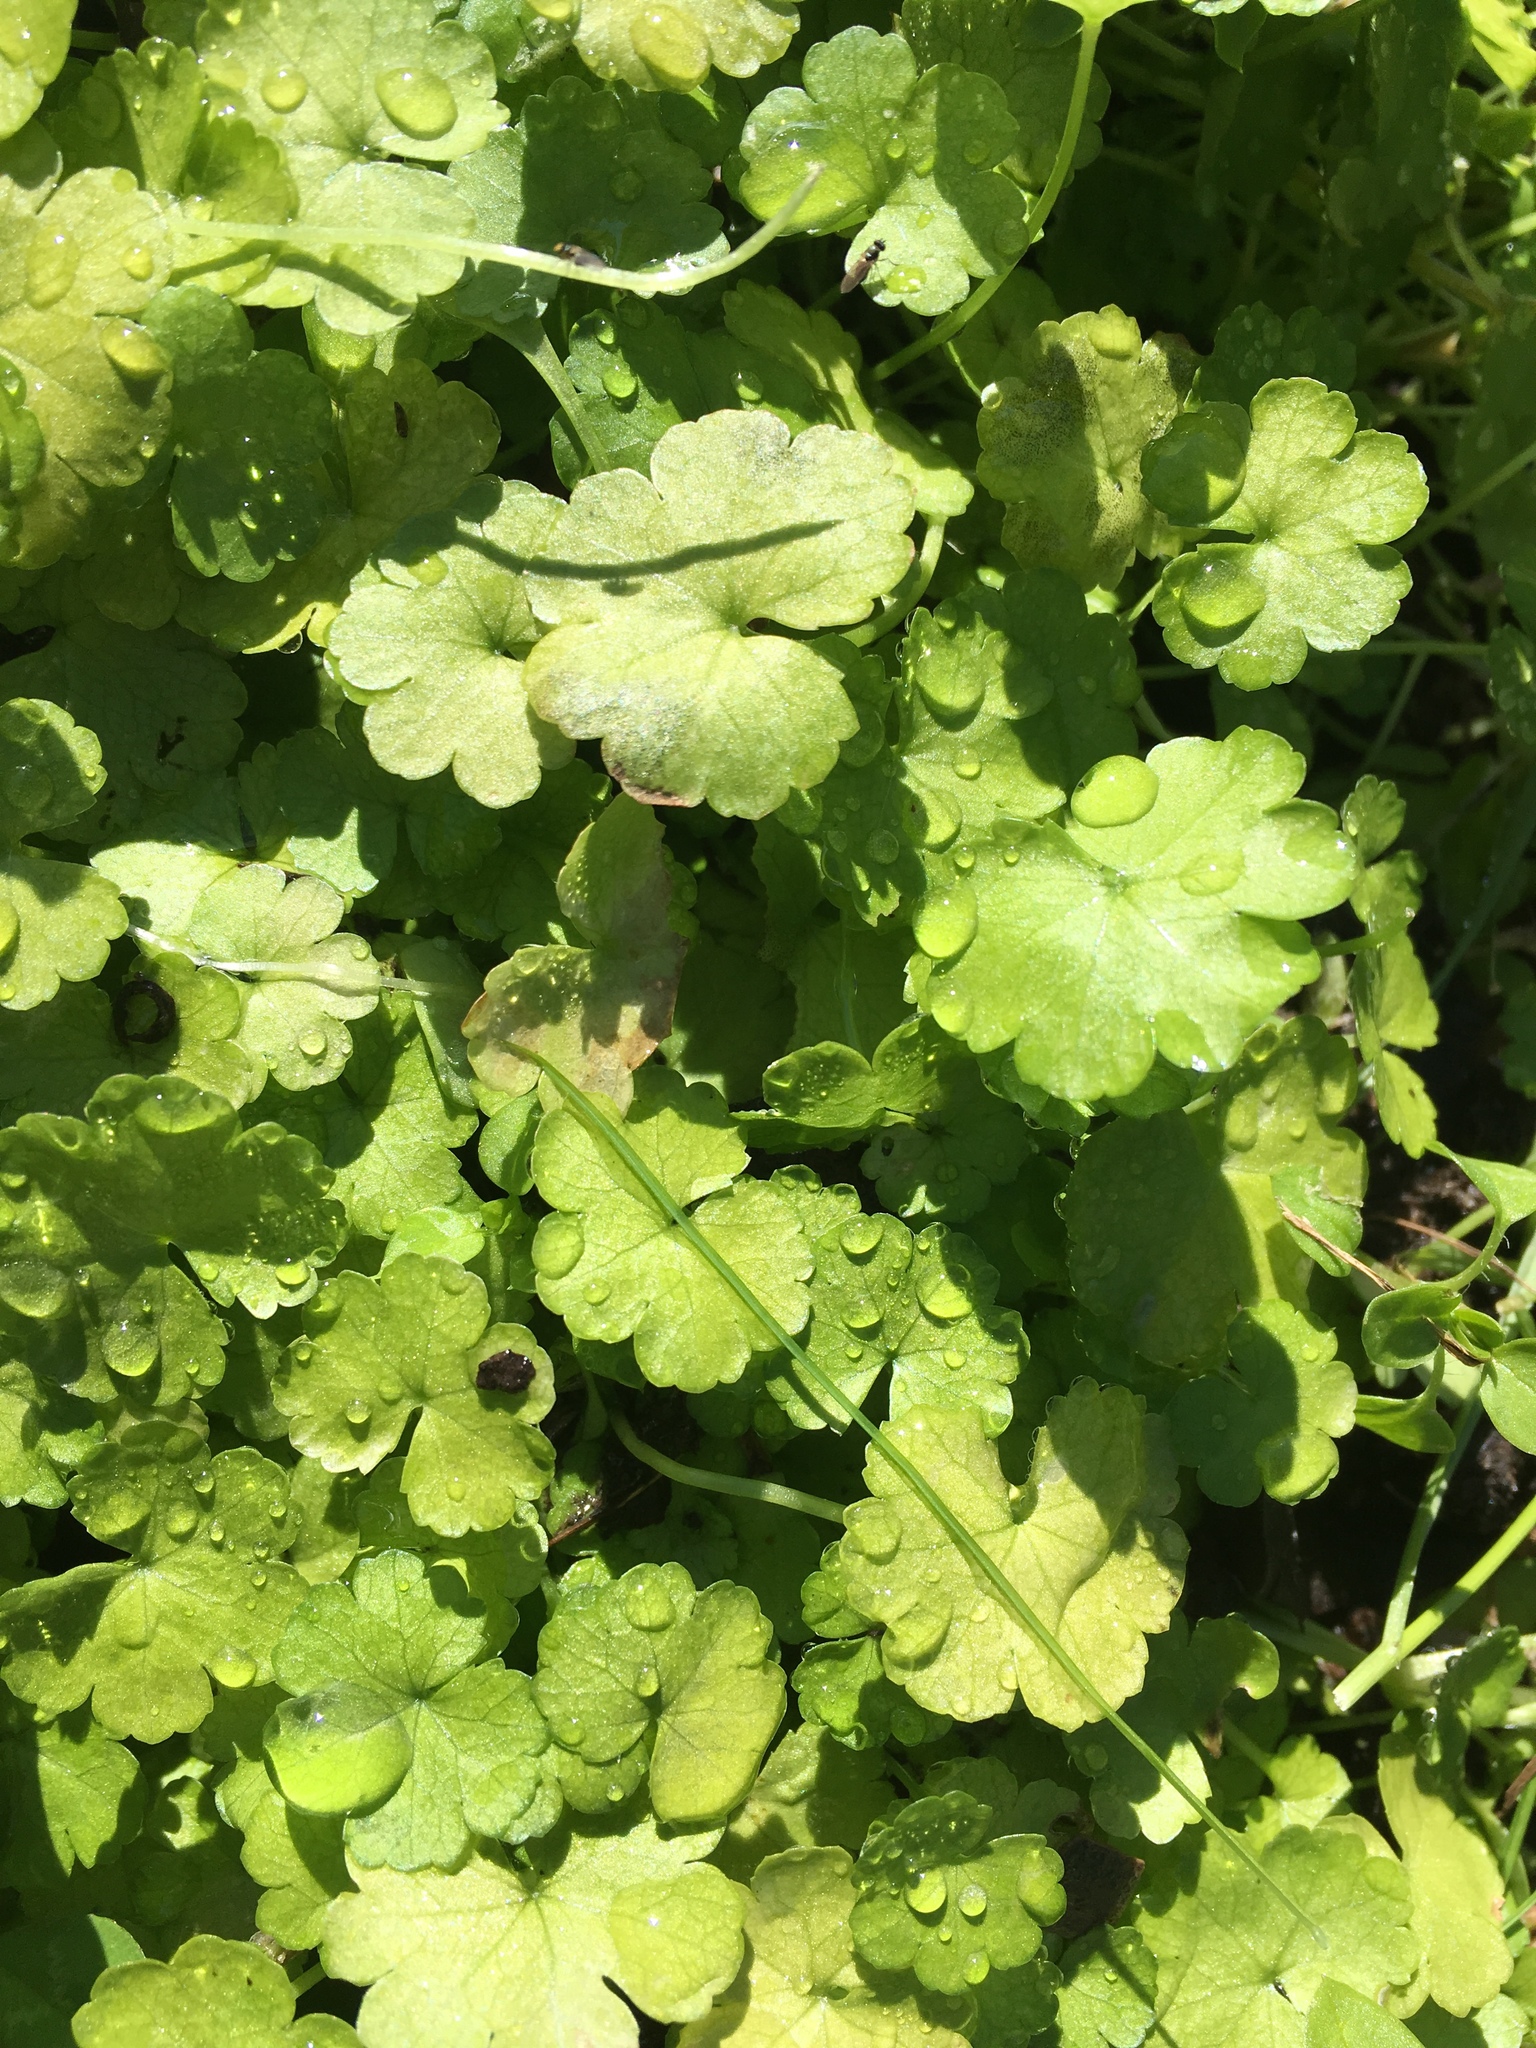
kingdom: Plantae
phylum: Tracheophyta
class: Magnoliopsida
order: Apiales
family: Araliaceae
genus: Hydrocotyle
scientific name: Hydrocotyle heteromeria
